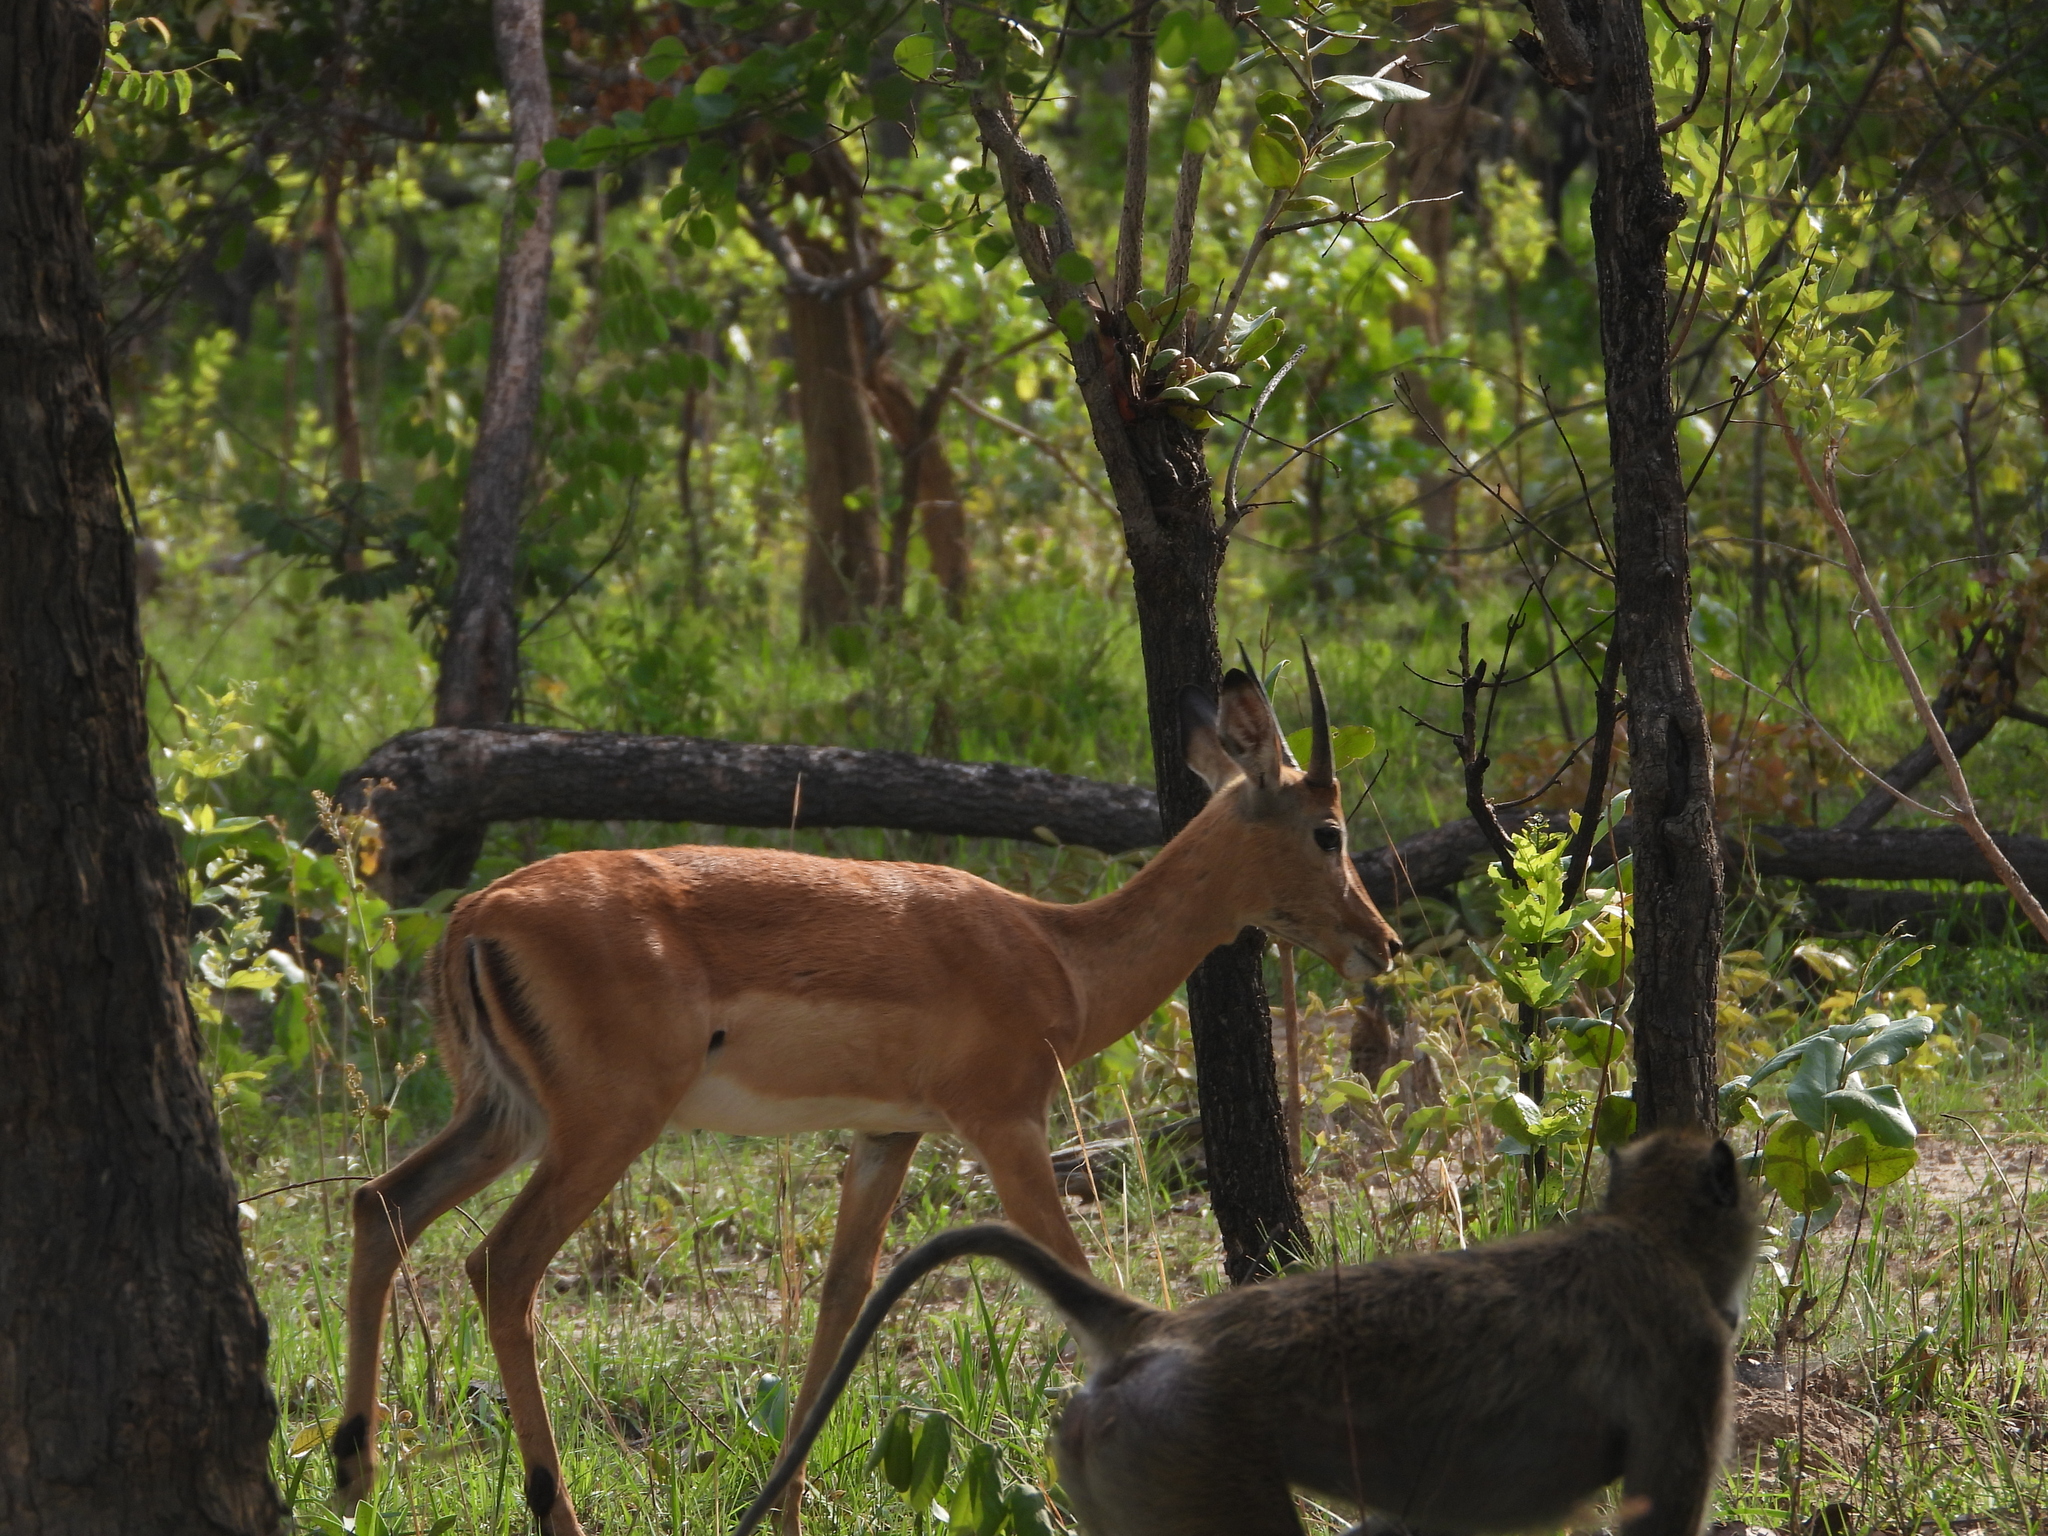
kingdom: Animalia
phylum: Chordata
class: Mammalia
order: Artiodactyla
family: Bovidae
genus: Aepyceros
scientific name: Aepyceros melampus
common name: Impala
